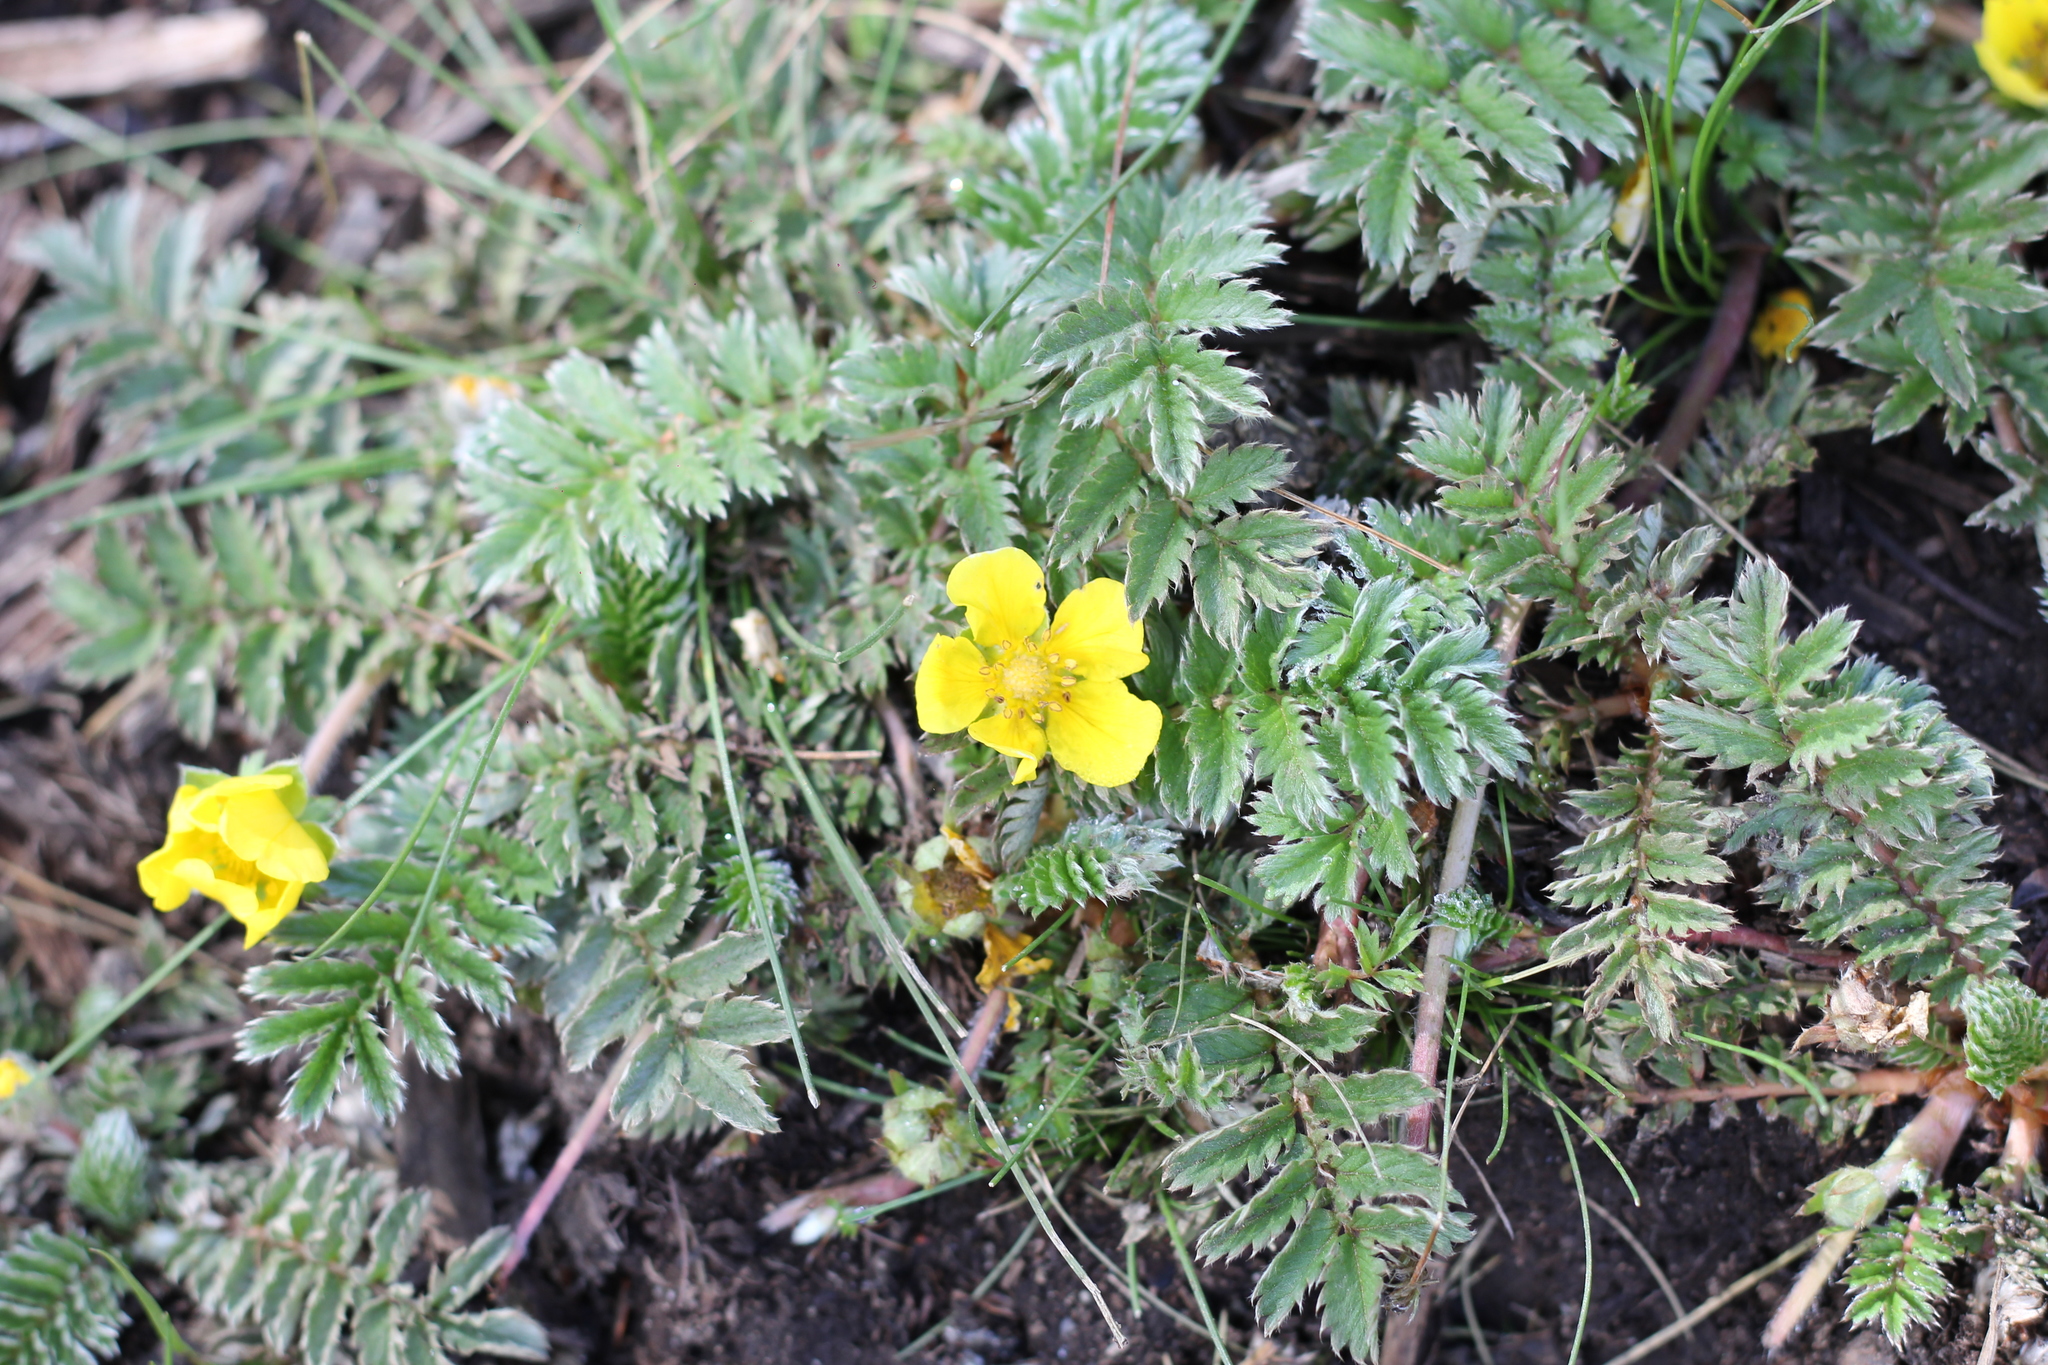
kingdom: Plantae
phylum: Tracheophyta
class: Magnoliopsida
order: Rosales
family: Rosaceae
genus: Argentina
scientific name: Argentina anserina
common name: Common silverweed
